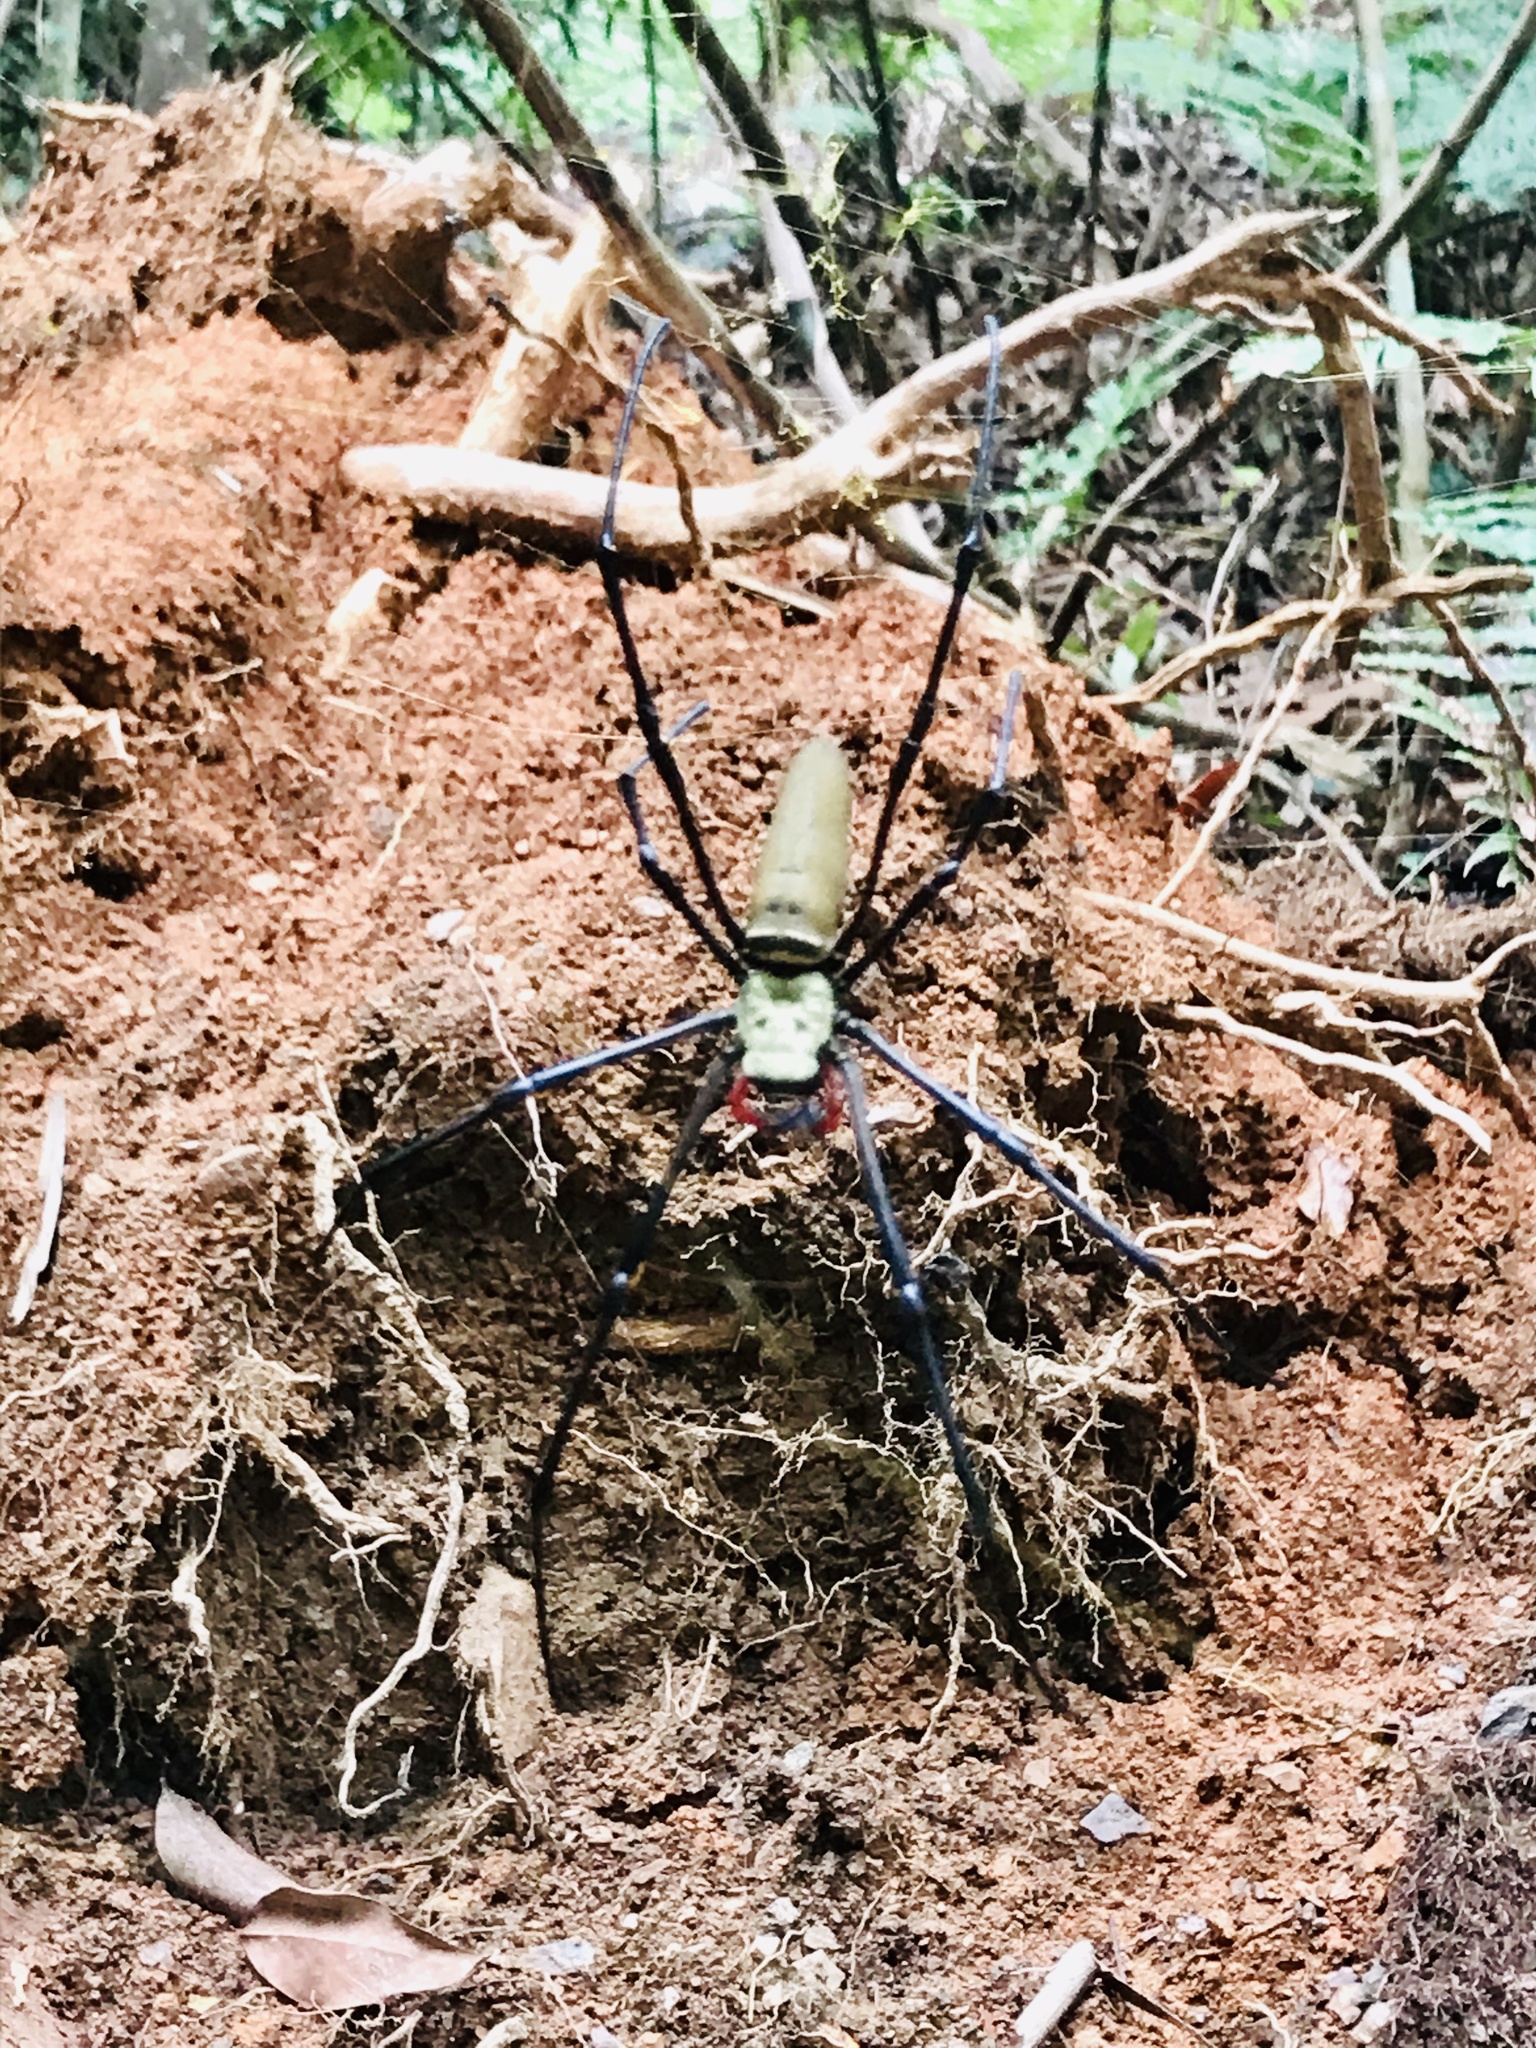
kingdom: Animalia
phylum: Arthropoda
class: Arachnida
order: Araneae
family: Araneidae
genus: Nephila
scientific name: Nephila pilipes
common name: Giant golden orb weaver
